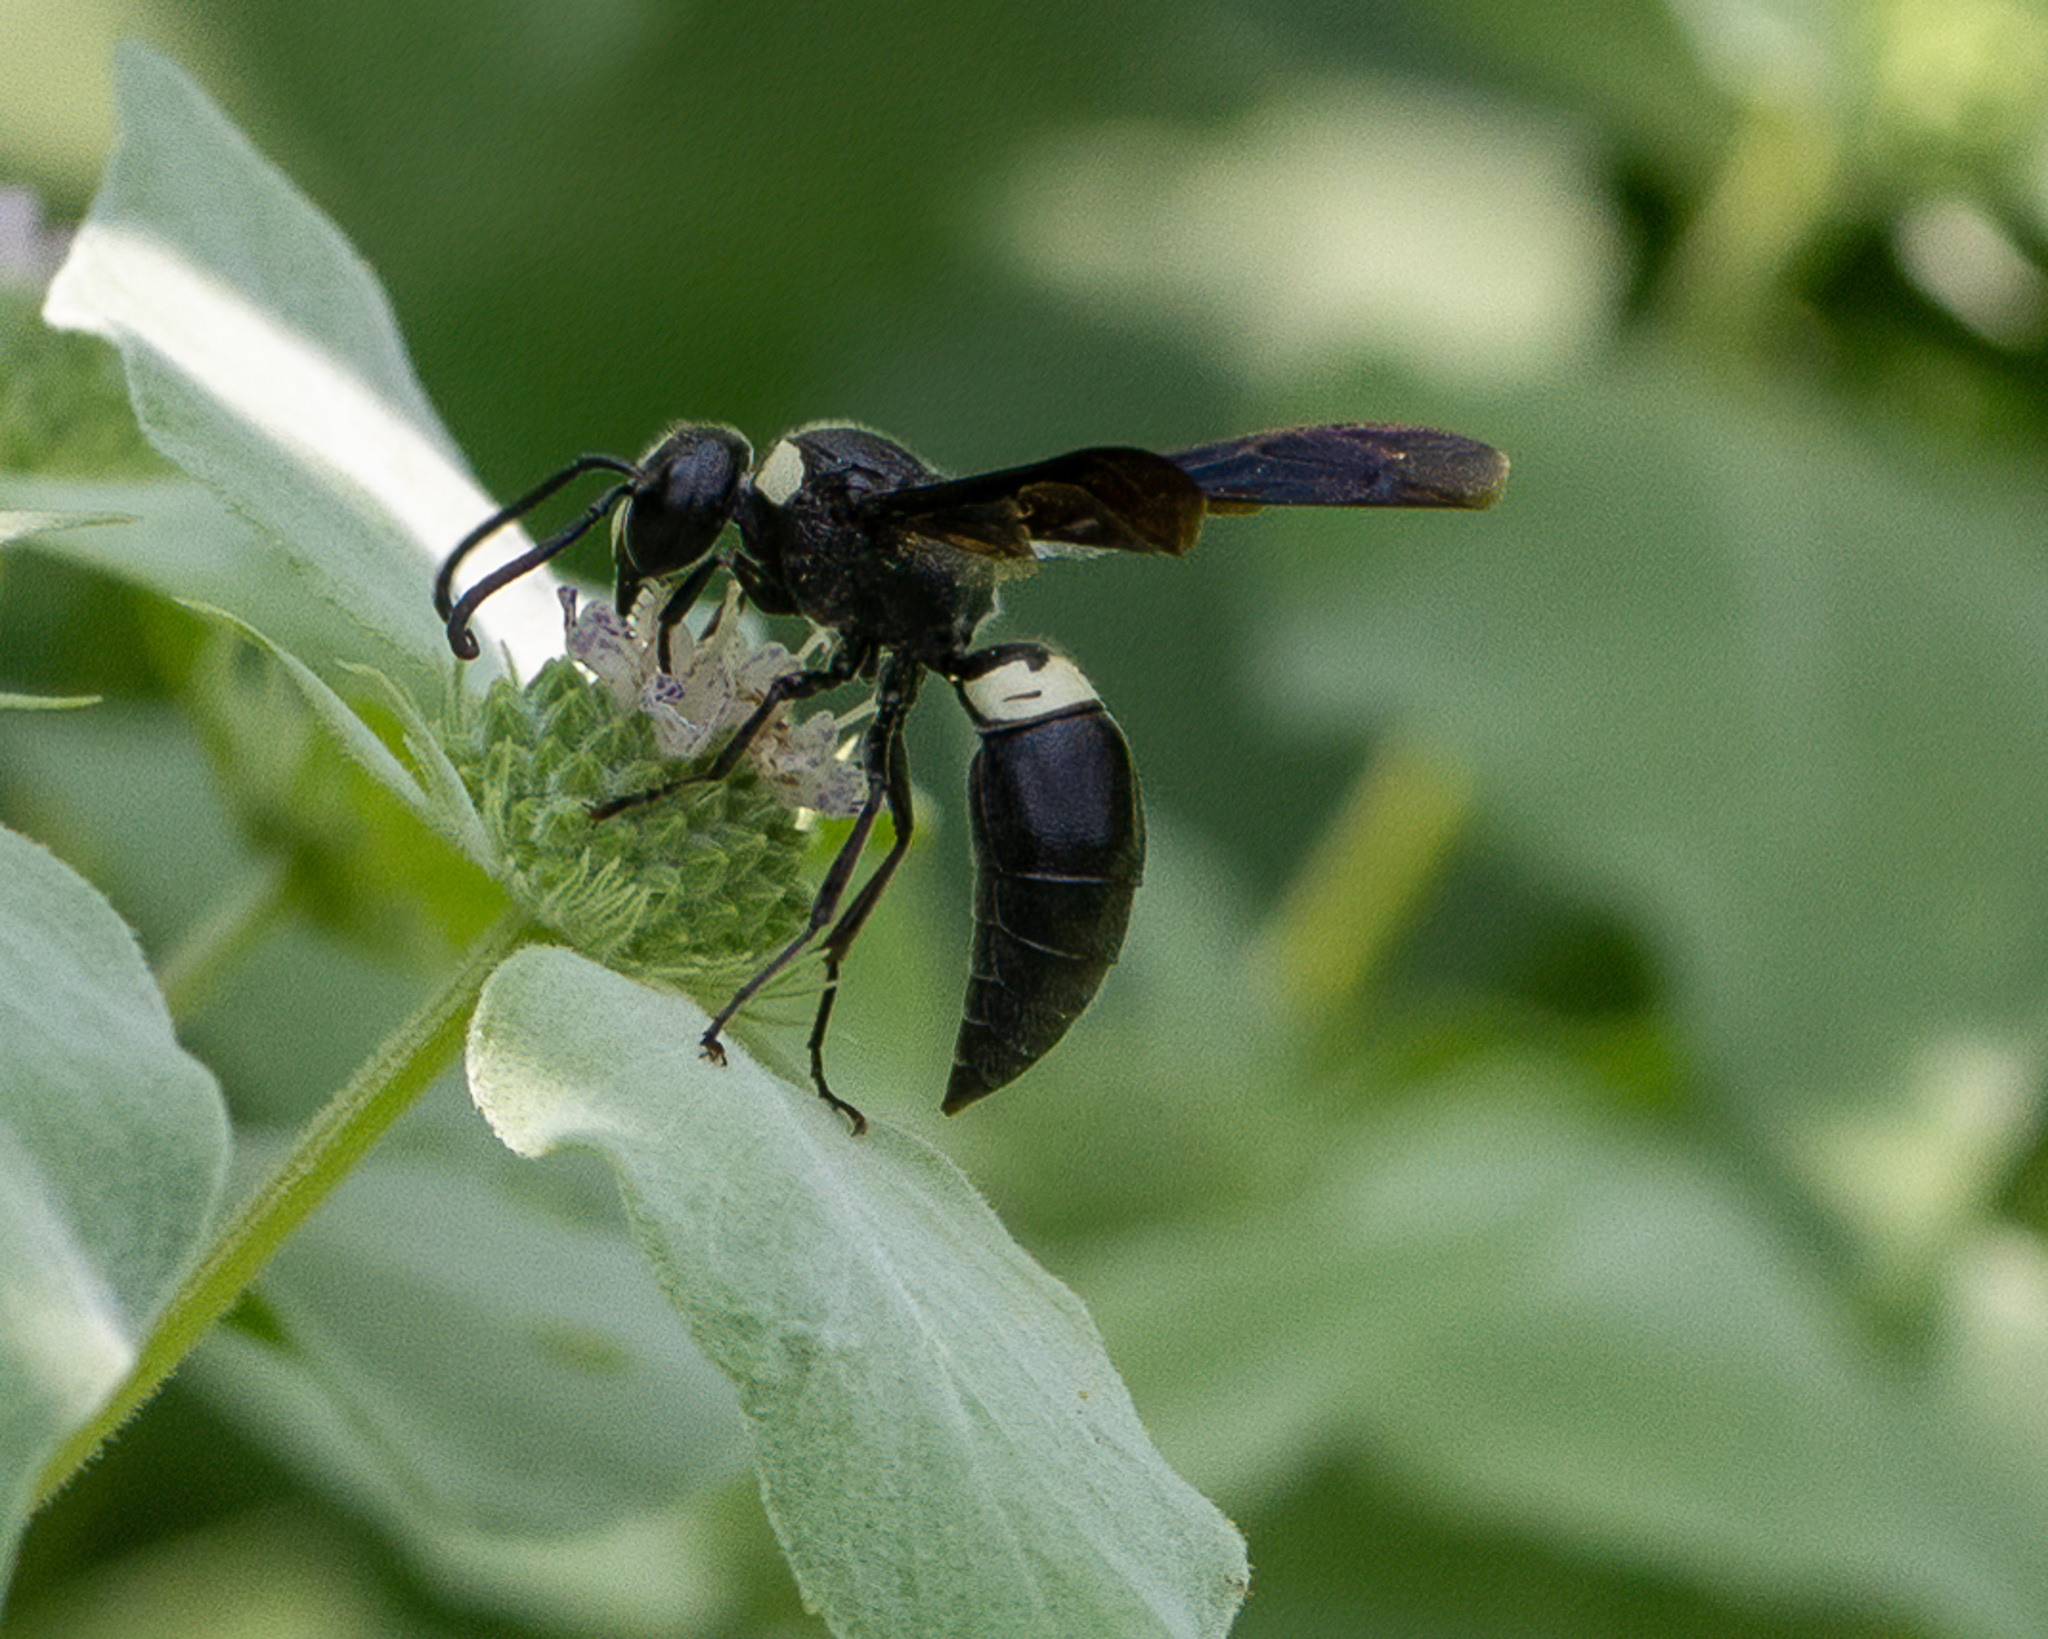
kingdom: Animalia
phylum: Arthropoda
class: Insecta
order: Hymenoptera
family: Eumenidae
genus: Monobia
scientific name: Monobia quadridens
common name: Four-toothed mason wasp
